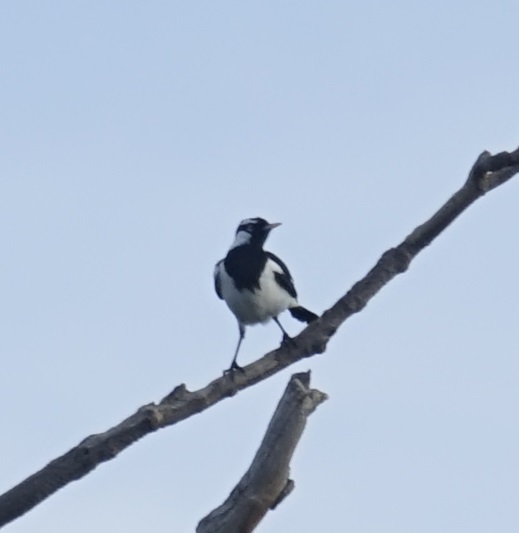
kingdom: Animalia
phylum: Chordata
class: Aves
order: Passeriformes
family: Monarchidae
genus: Grallina
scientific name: Grallina cyanoleuca
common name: Magpie-lark
